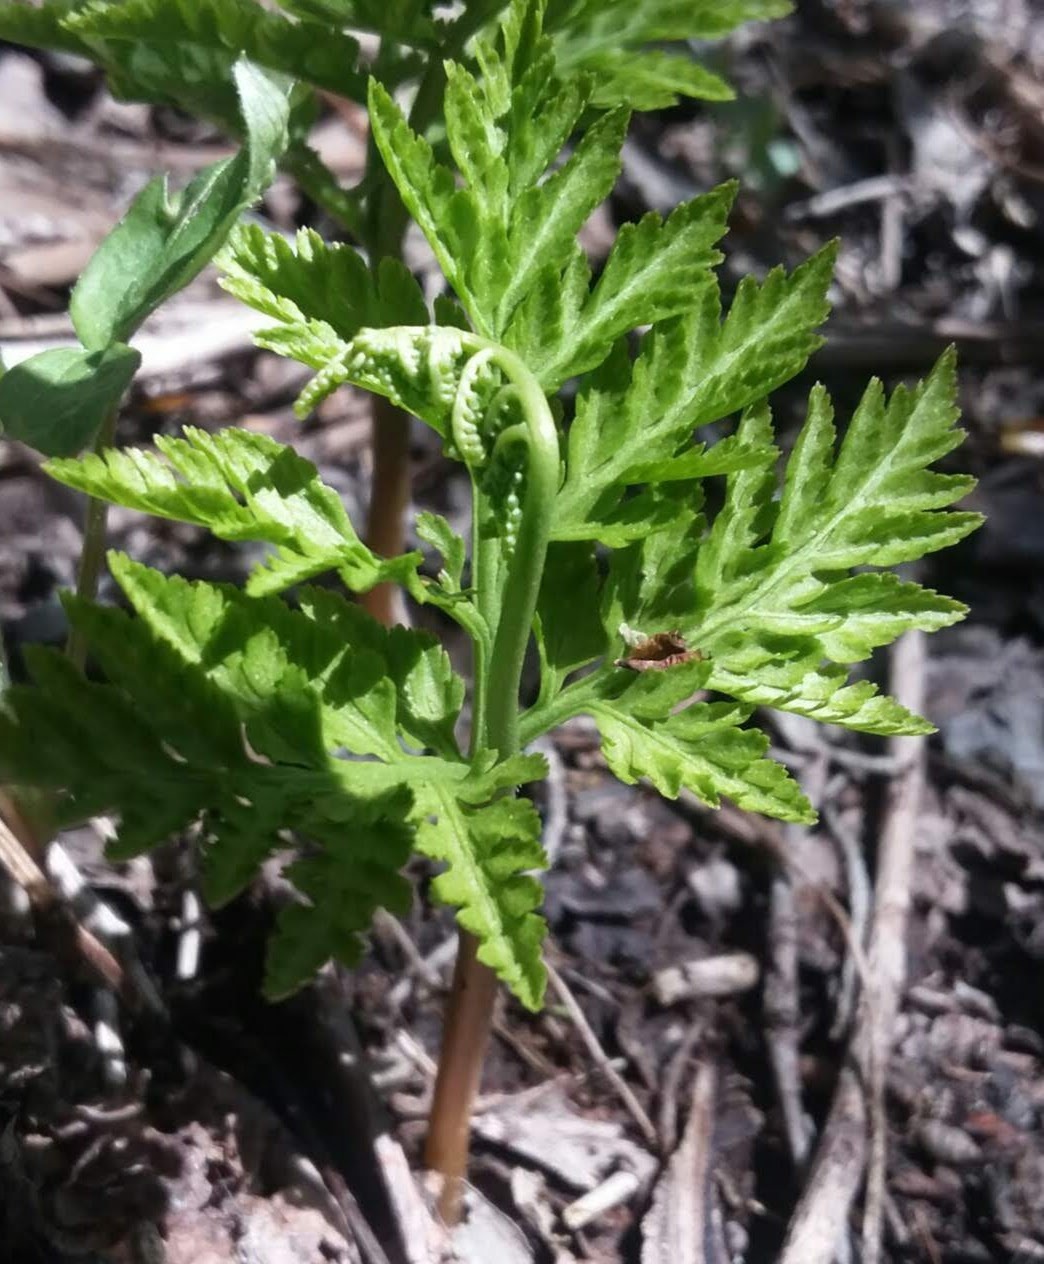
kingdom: Plantae
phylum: Tracheophyta
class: Polypodiopsida
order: Ophioglossales
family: Ophioglossaceae
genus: Botrypus
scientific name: Botrypus virginianus
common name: Common grapefern
